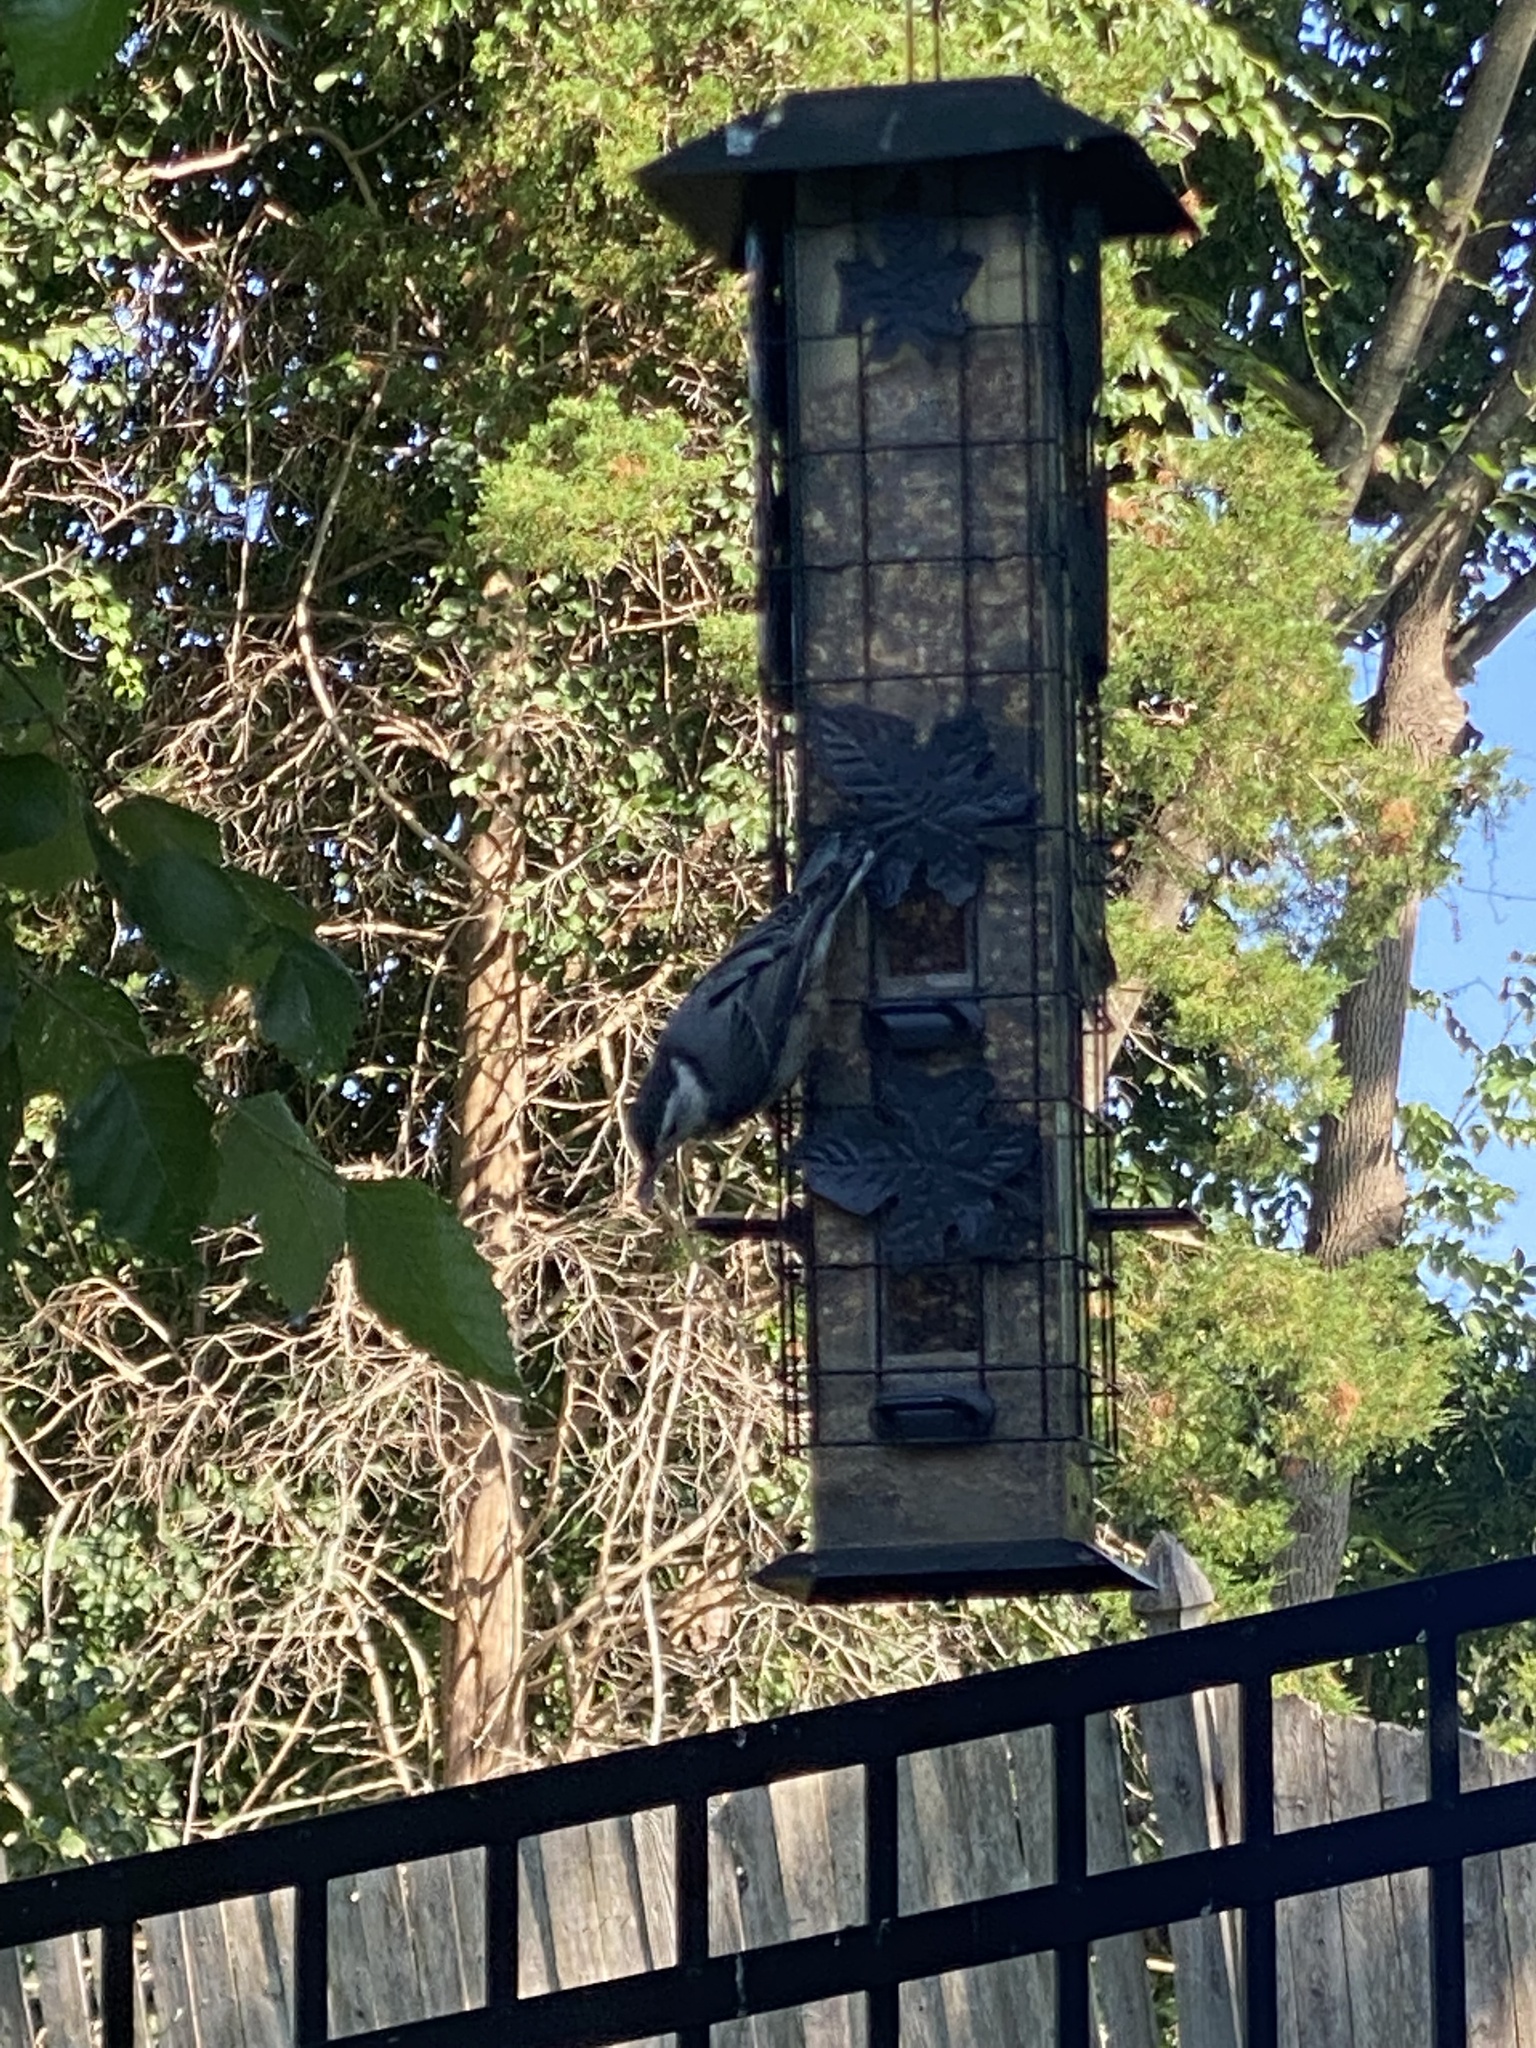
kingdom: Animalia
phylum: Chordata
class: Aves
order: Passeriformes
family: Sittidae
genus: Sitta
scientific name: Sitta carolinensis
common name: White-breasted nuthatch
